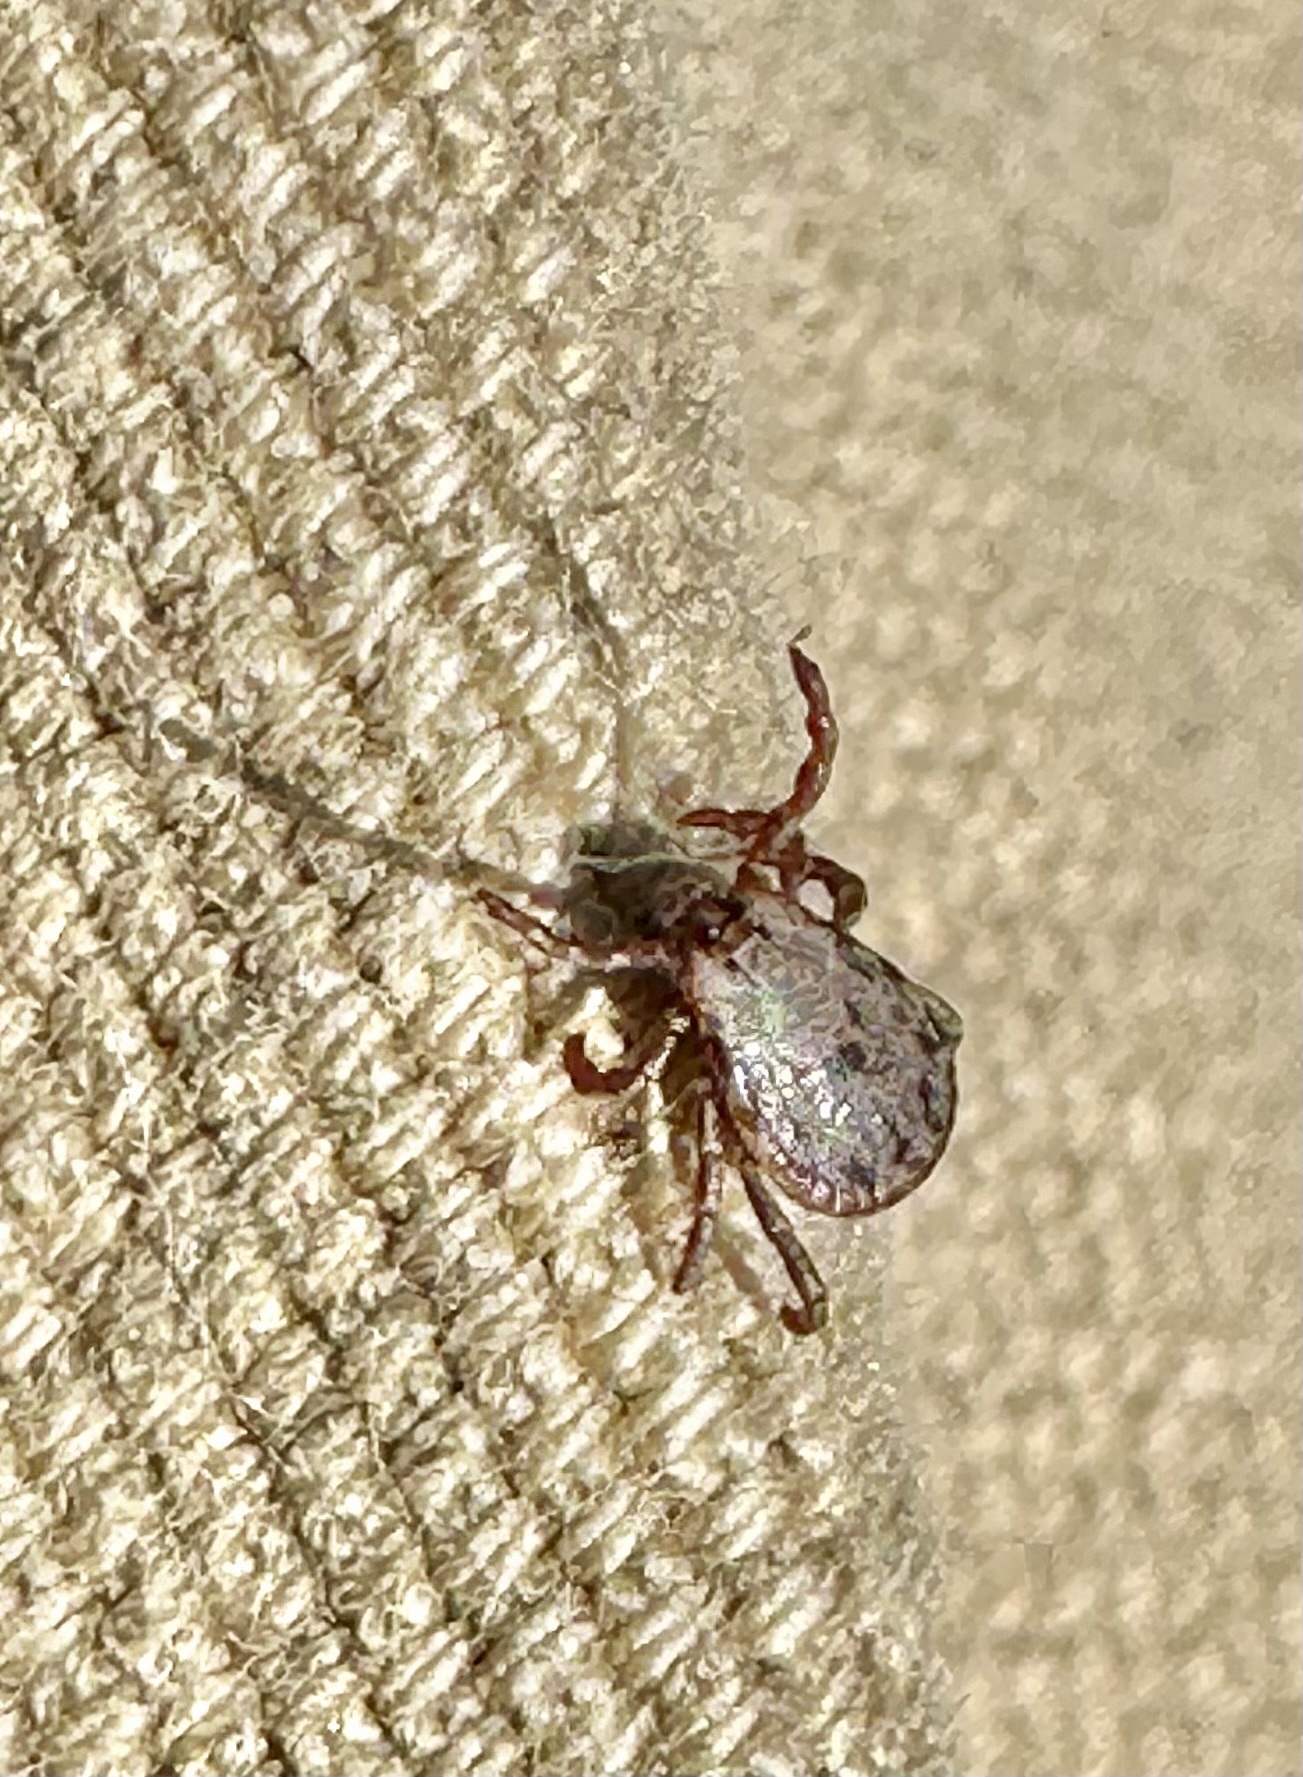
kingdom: Animalia
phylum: Arthropoda
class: Arachnida
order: Ixodida
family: Ixodidae
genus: Dermacentor
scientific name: Dermacentor occidentalis
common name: Net tick
